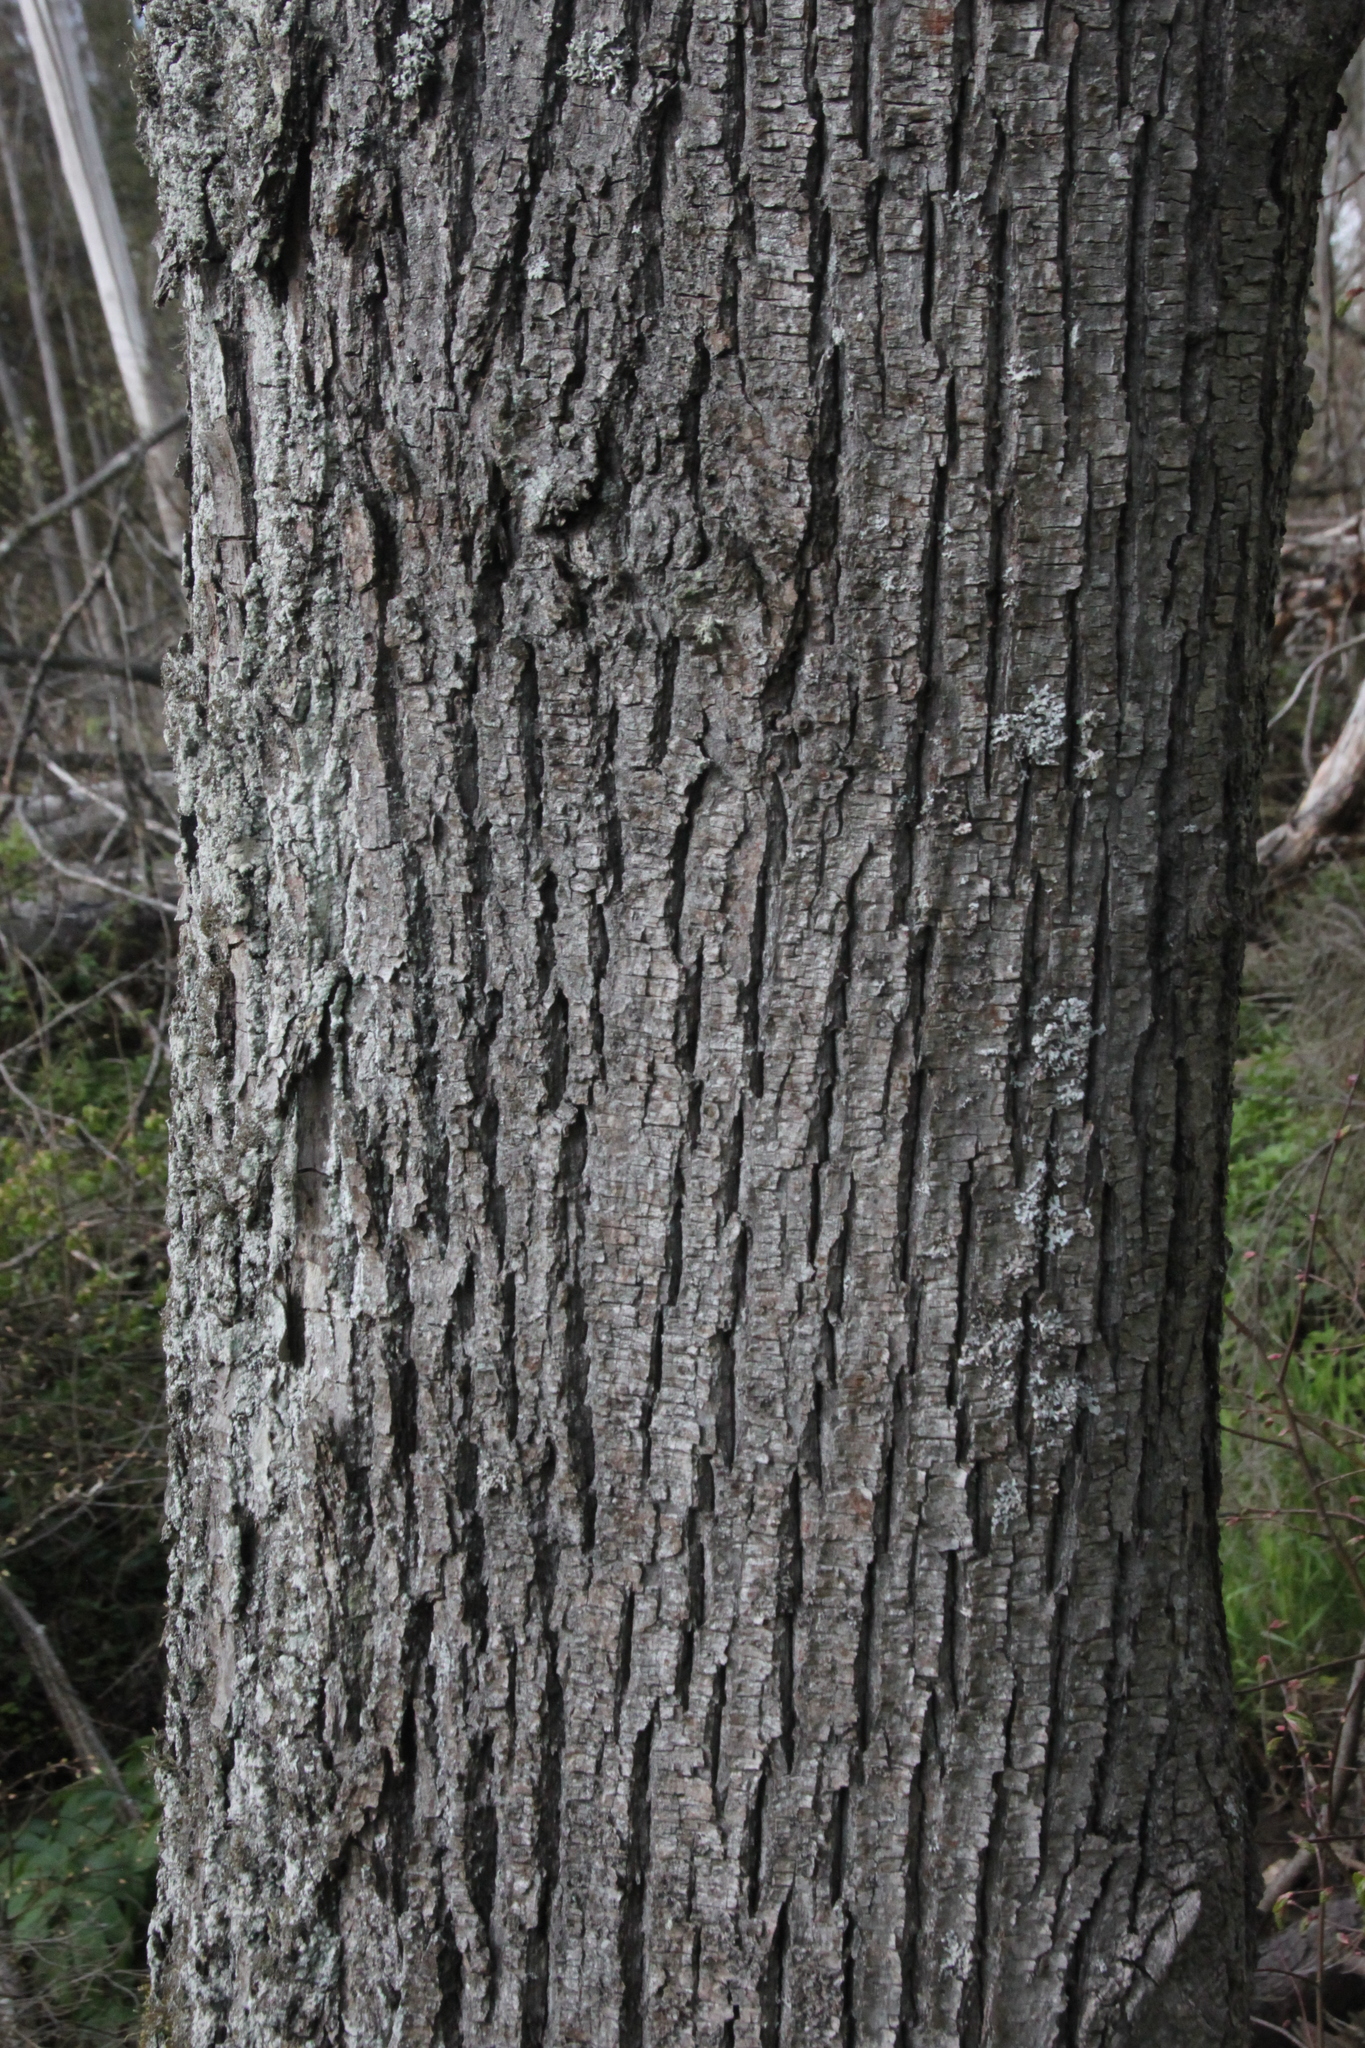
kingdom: Plantae
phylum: Tracheophyta
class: Magnoliopsida
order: Malvales
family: Malvaceae
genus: Tilia
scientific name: Tilia cordata
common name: Small-leaved lime
